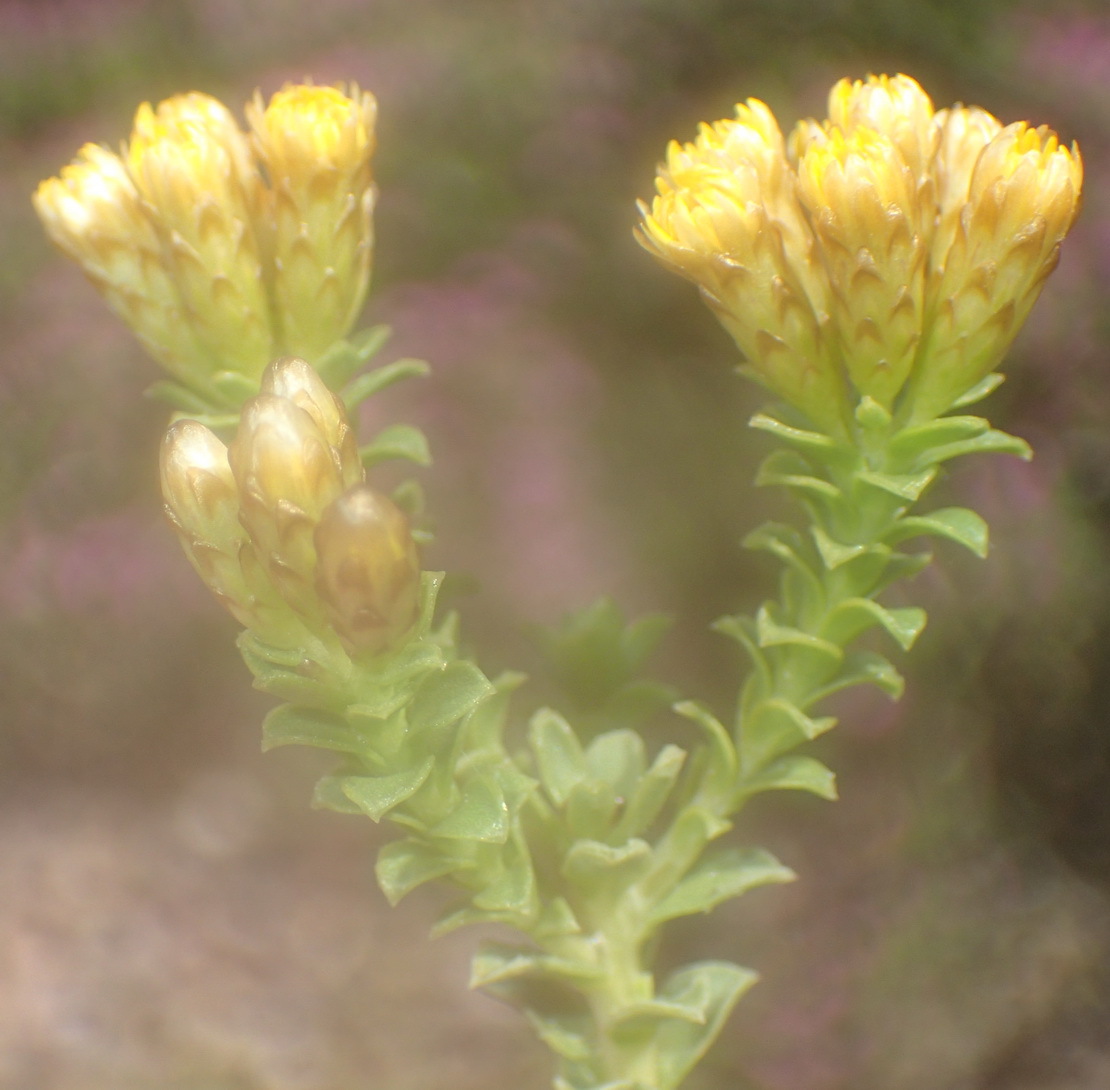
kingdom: Plantae
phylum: Tracheophyta
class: Magnoliopsida
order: Asterales
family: Asteraceae
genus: Oedera
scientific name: Oedera squarrosa
